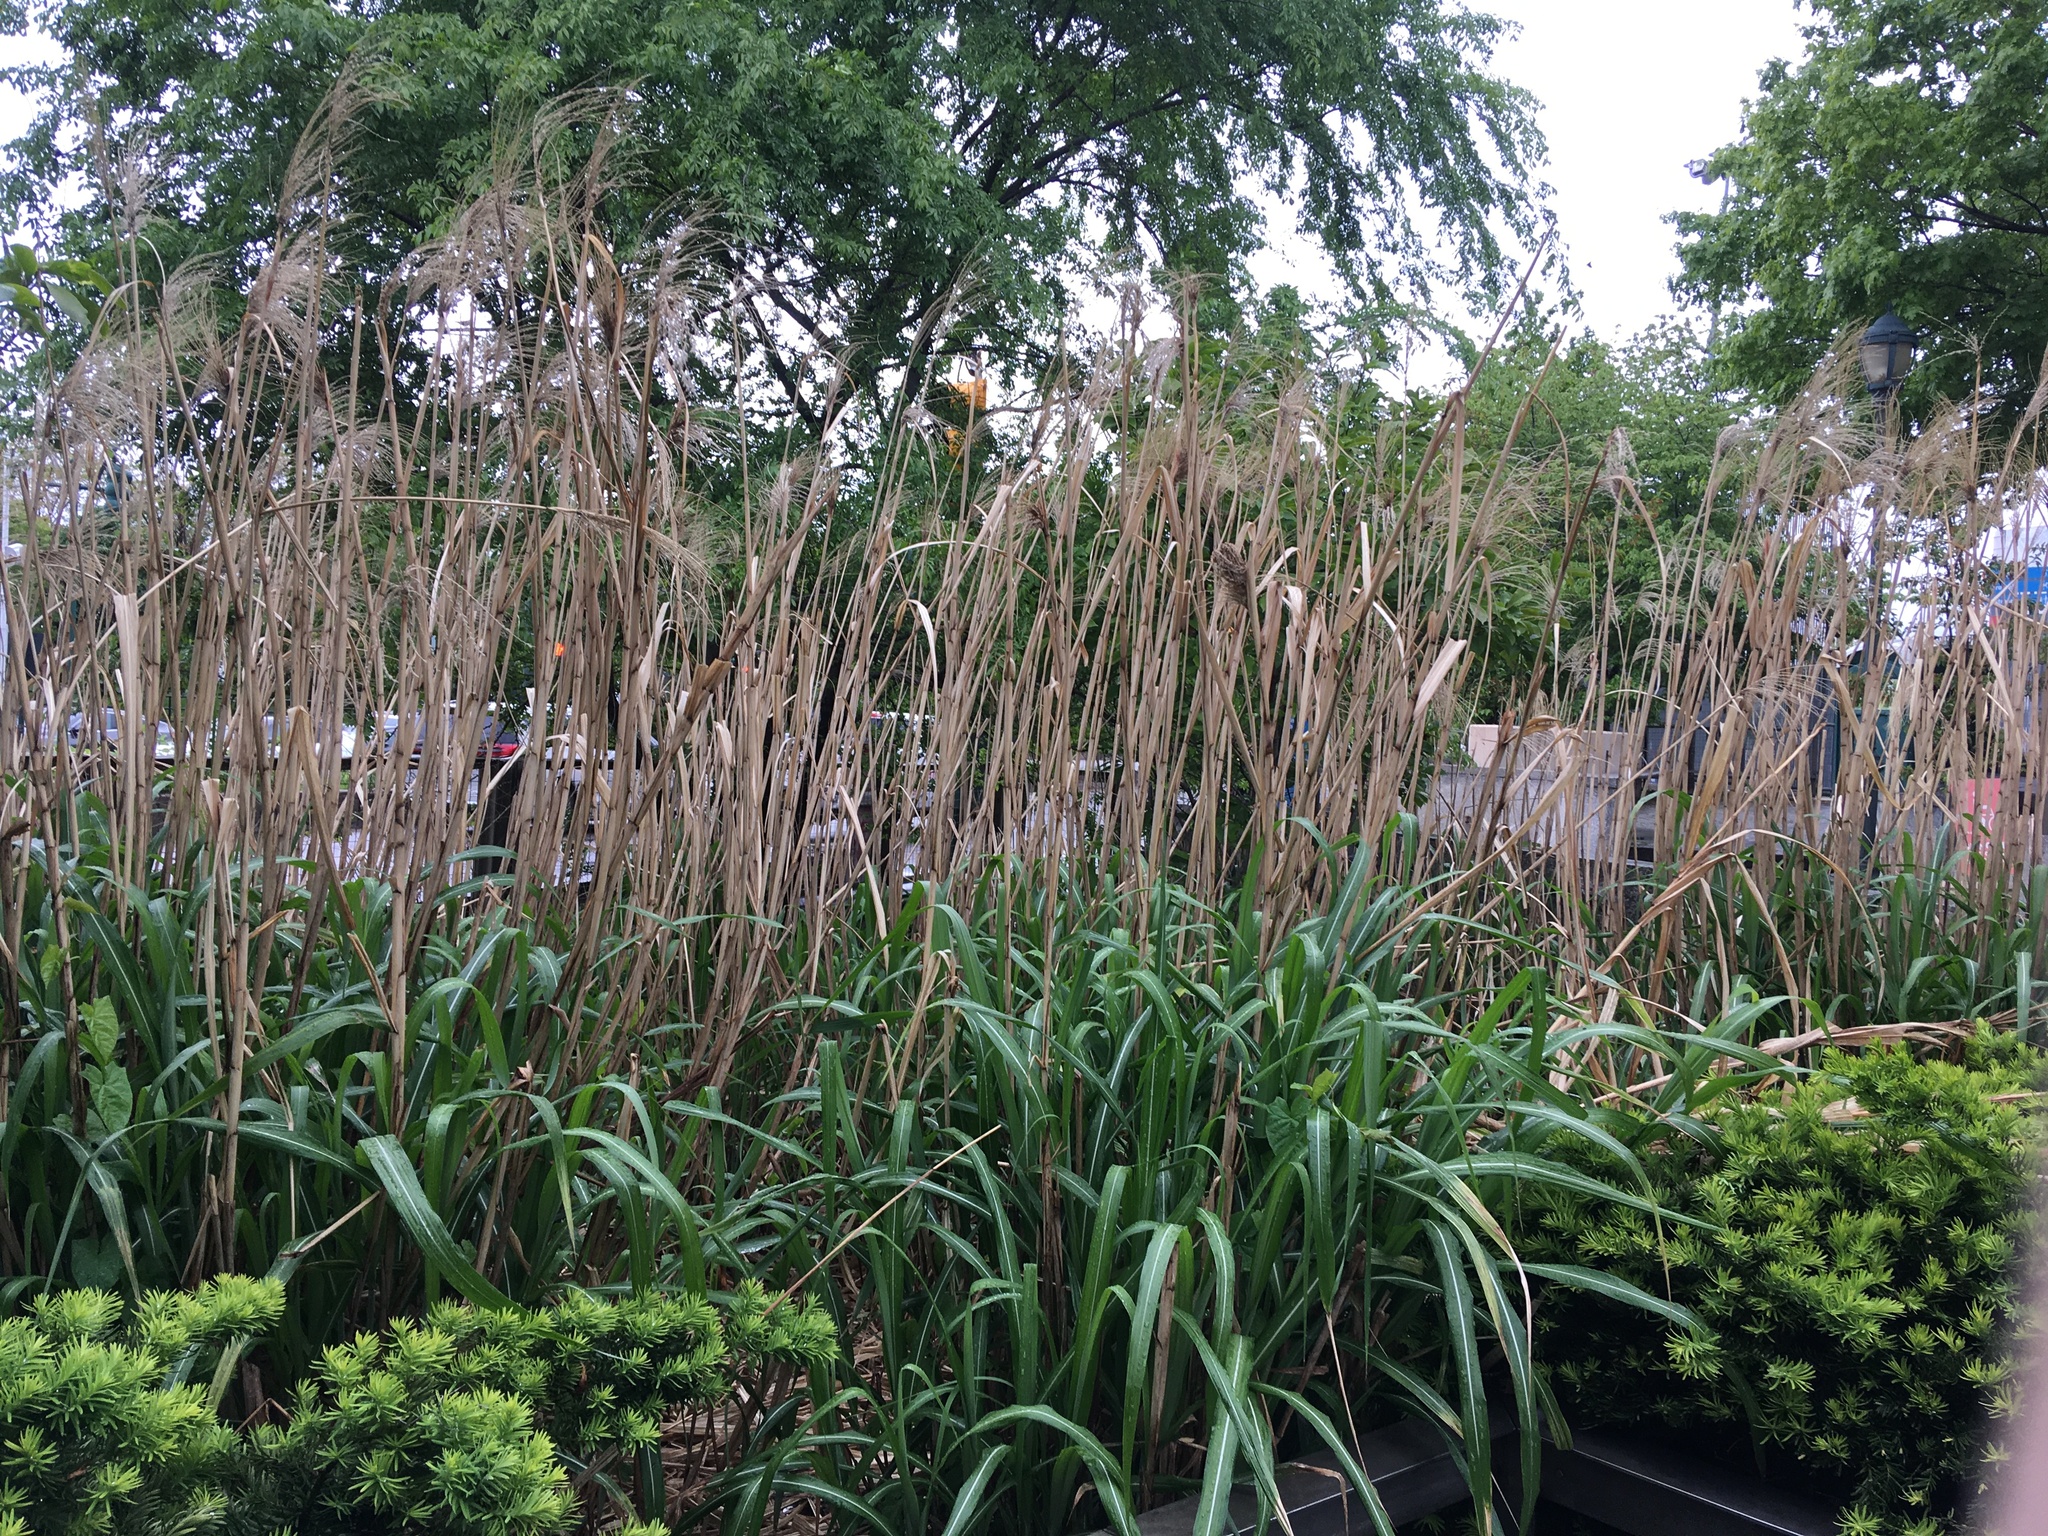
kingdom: Plantae
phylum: Tracheophyta
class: Liliopsida
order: Poales
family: Poaceae
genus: Miscanthus
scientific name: Miscanthus sinensis
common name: Chinese silvergrass
